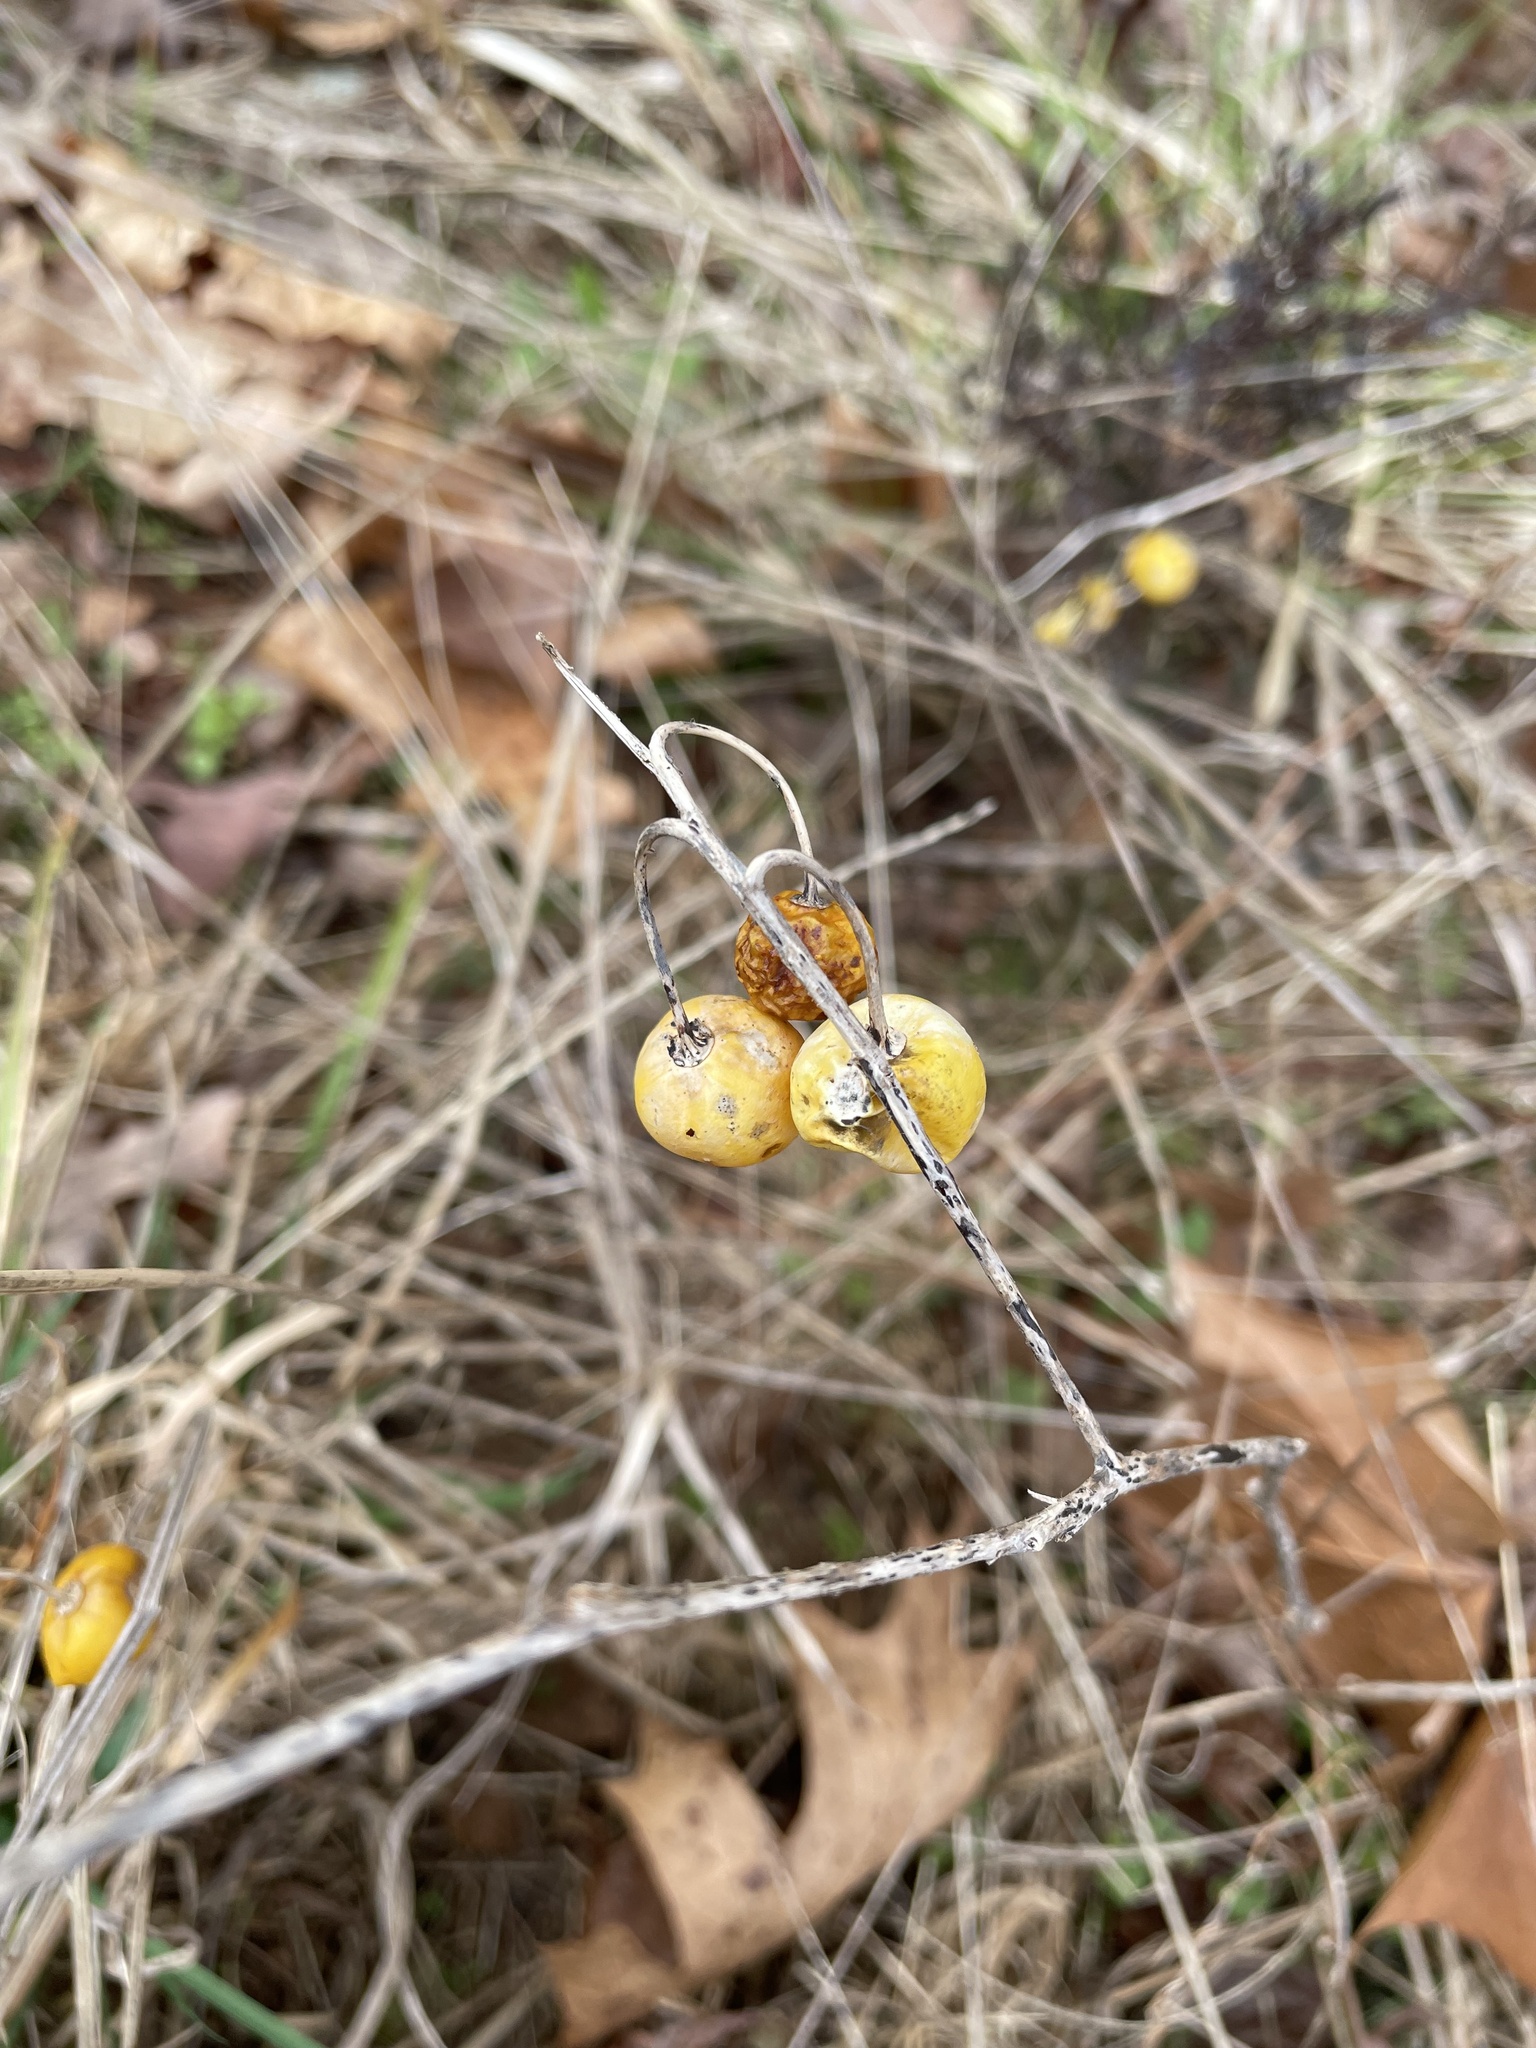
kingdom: Plantae
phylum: Tracheophyta
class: Magnoliopsida
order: Solanales
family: Solanaceae
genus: Solanum
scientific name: Solanum carolinense
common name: Horse-nettle
